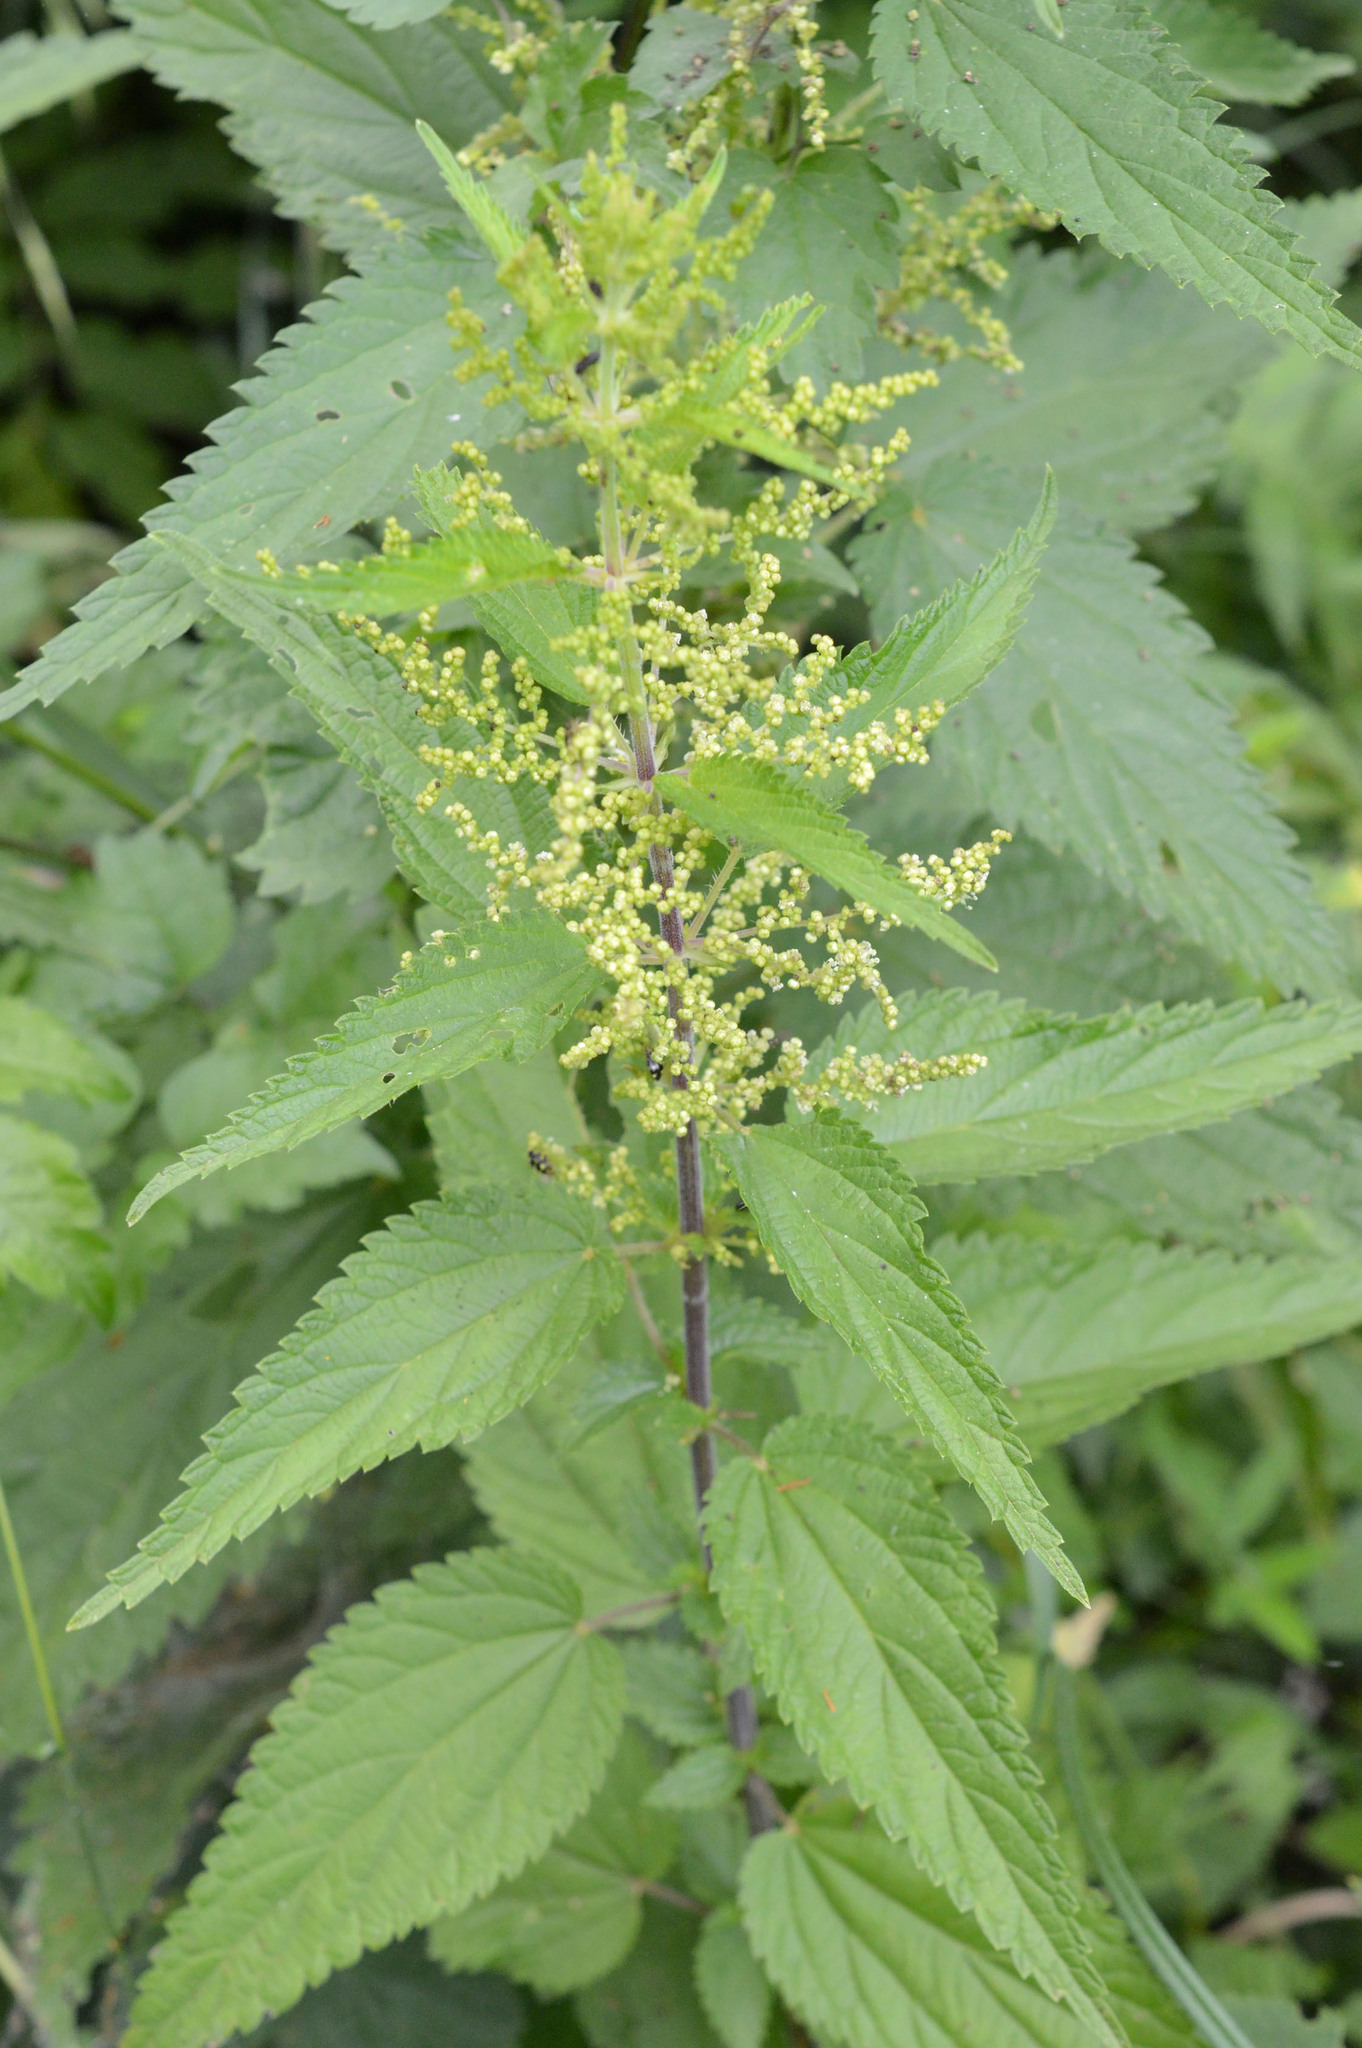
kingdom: Plantae
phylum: Tracheophyta
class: Magnoliopsida
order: Rosales
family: Urticaceae
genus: Urtica
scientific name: Urtica dioica
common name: Common nettle
